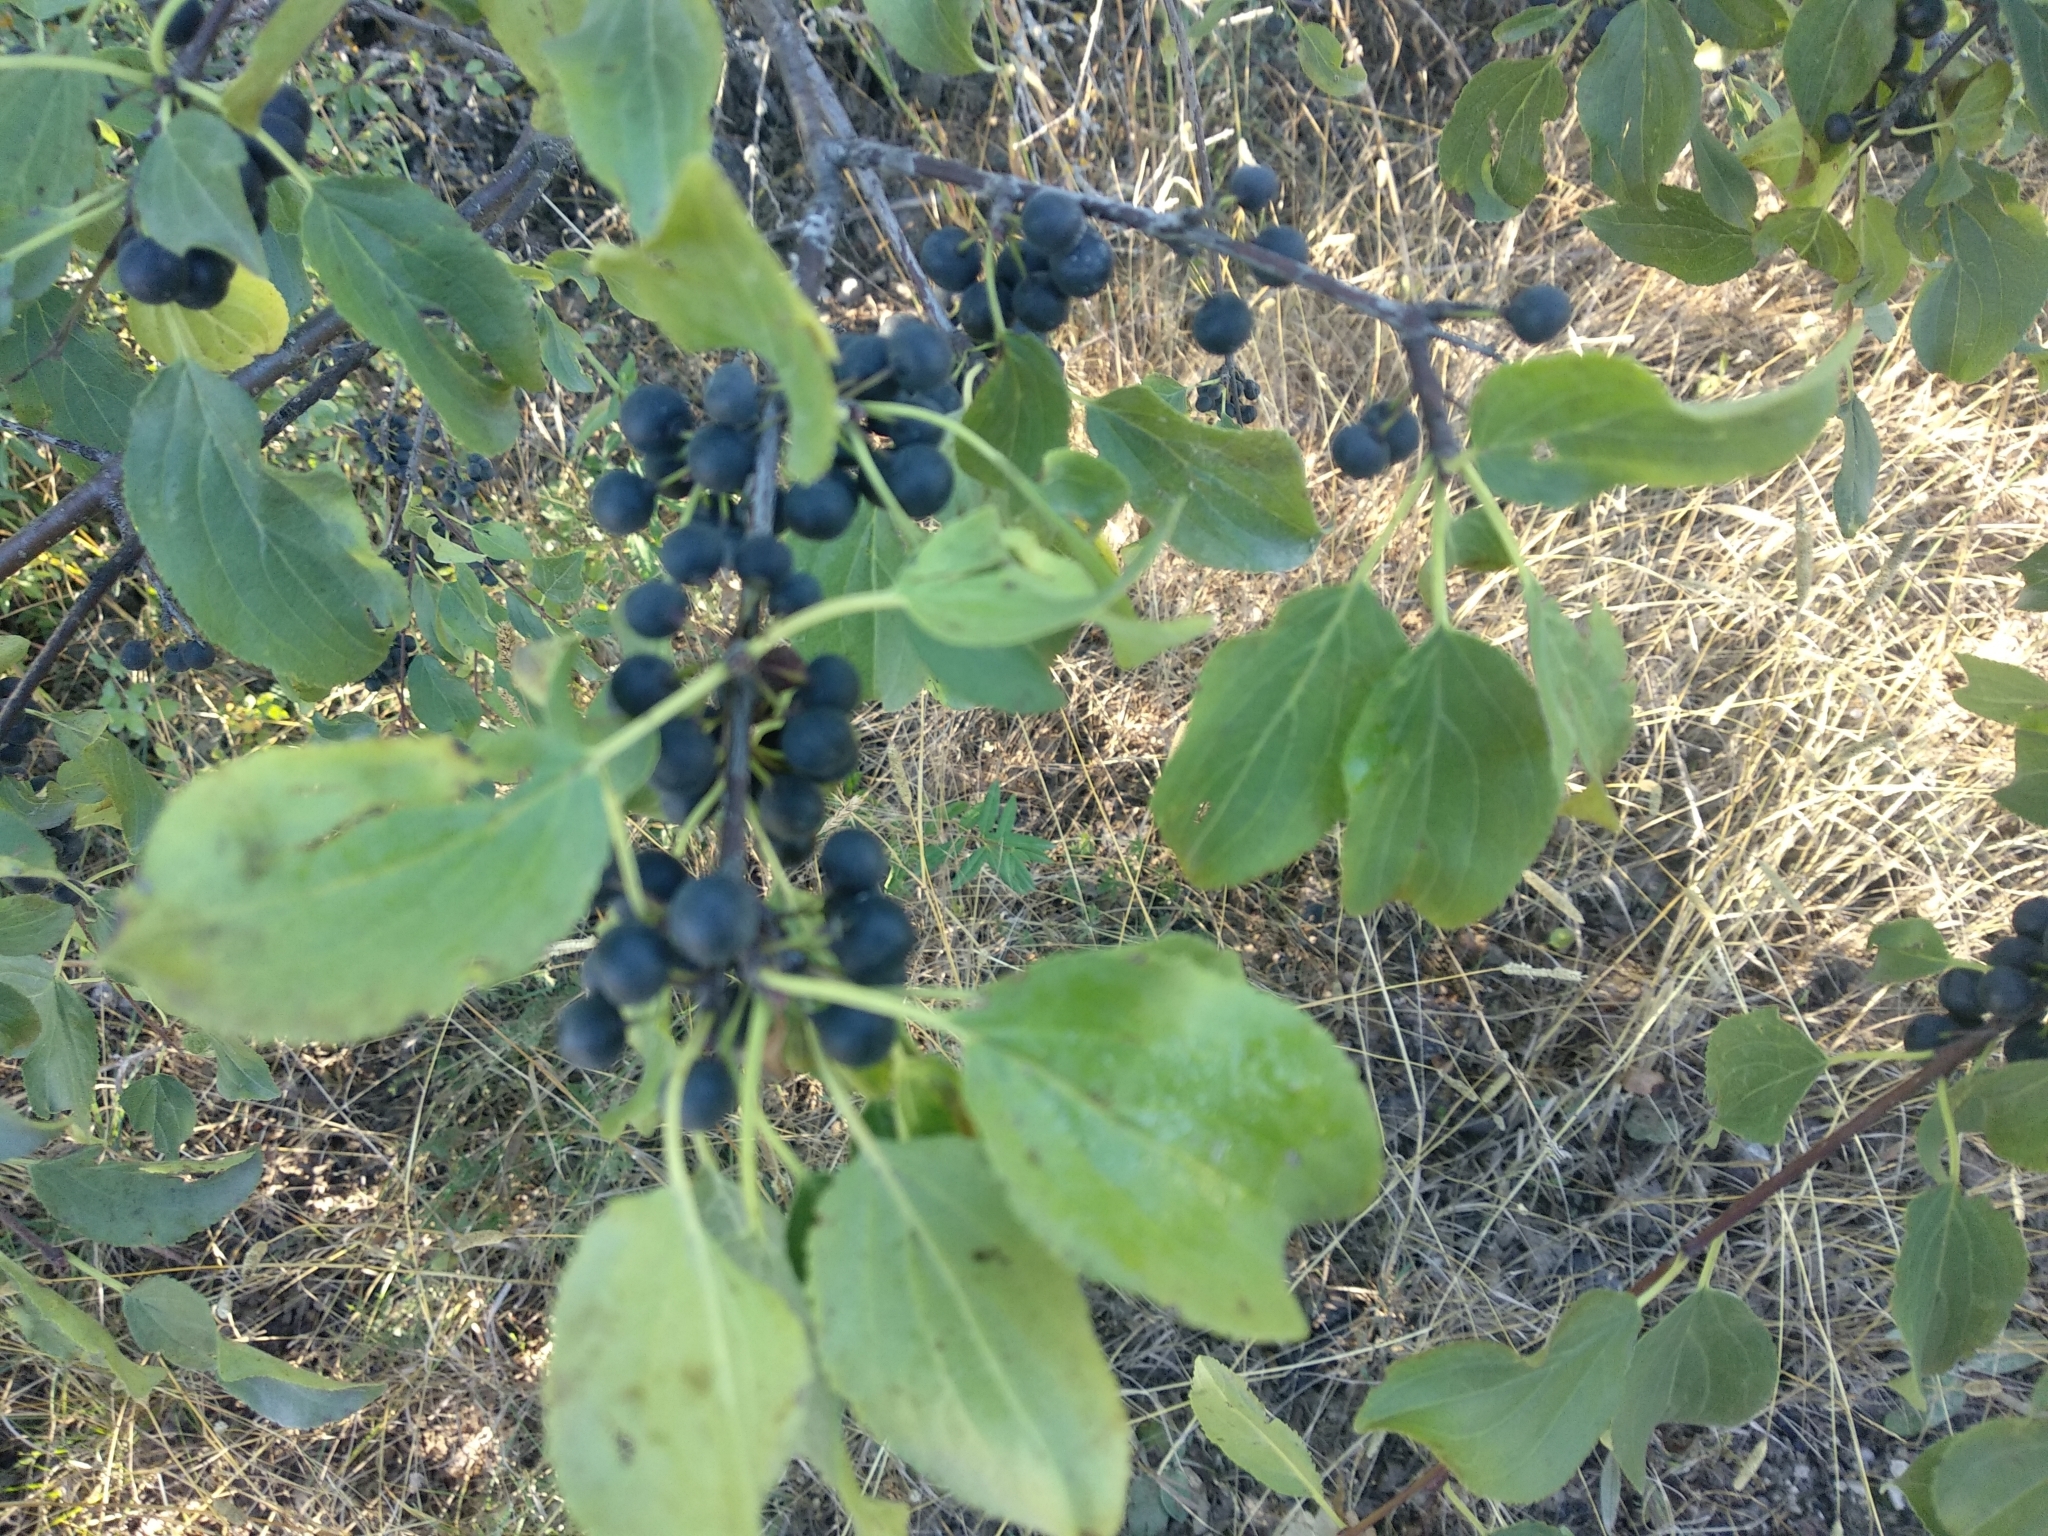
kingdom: Plantae
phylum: Tracheophyta
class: Magnoliopsida
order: Rosales
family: Rhamnaceae
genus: Rhamnus
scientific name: Rhamnus cathartica
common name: Common buckthorn
